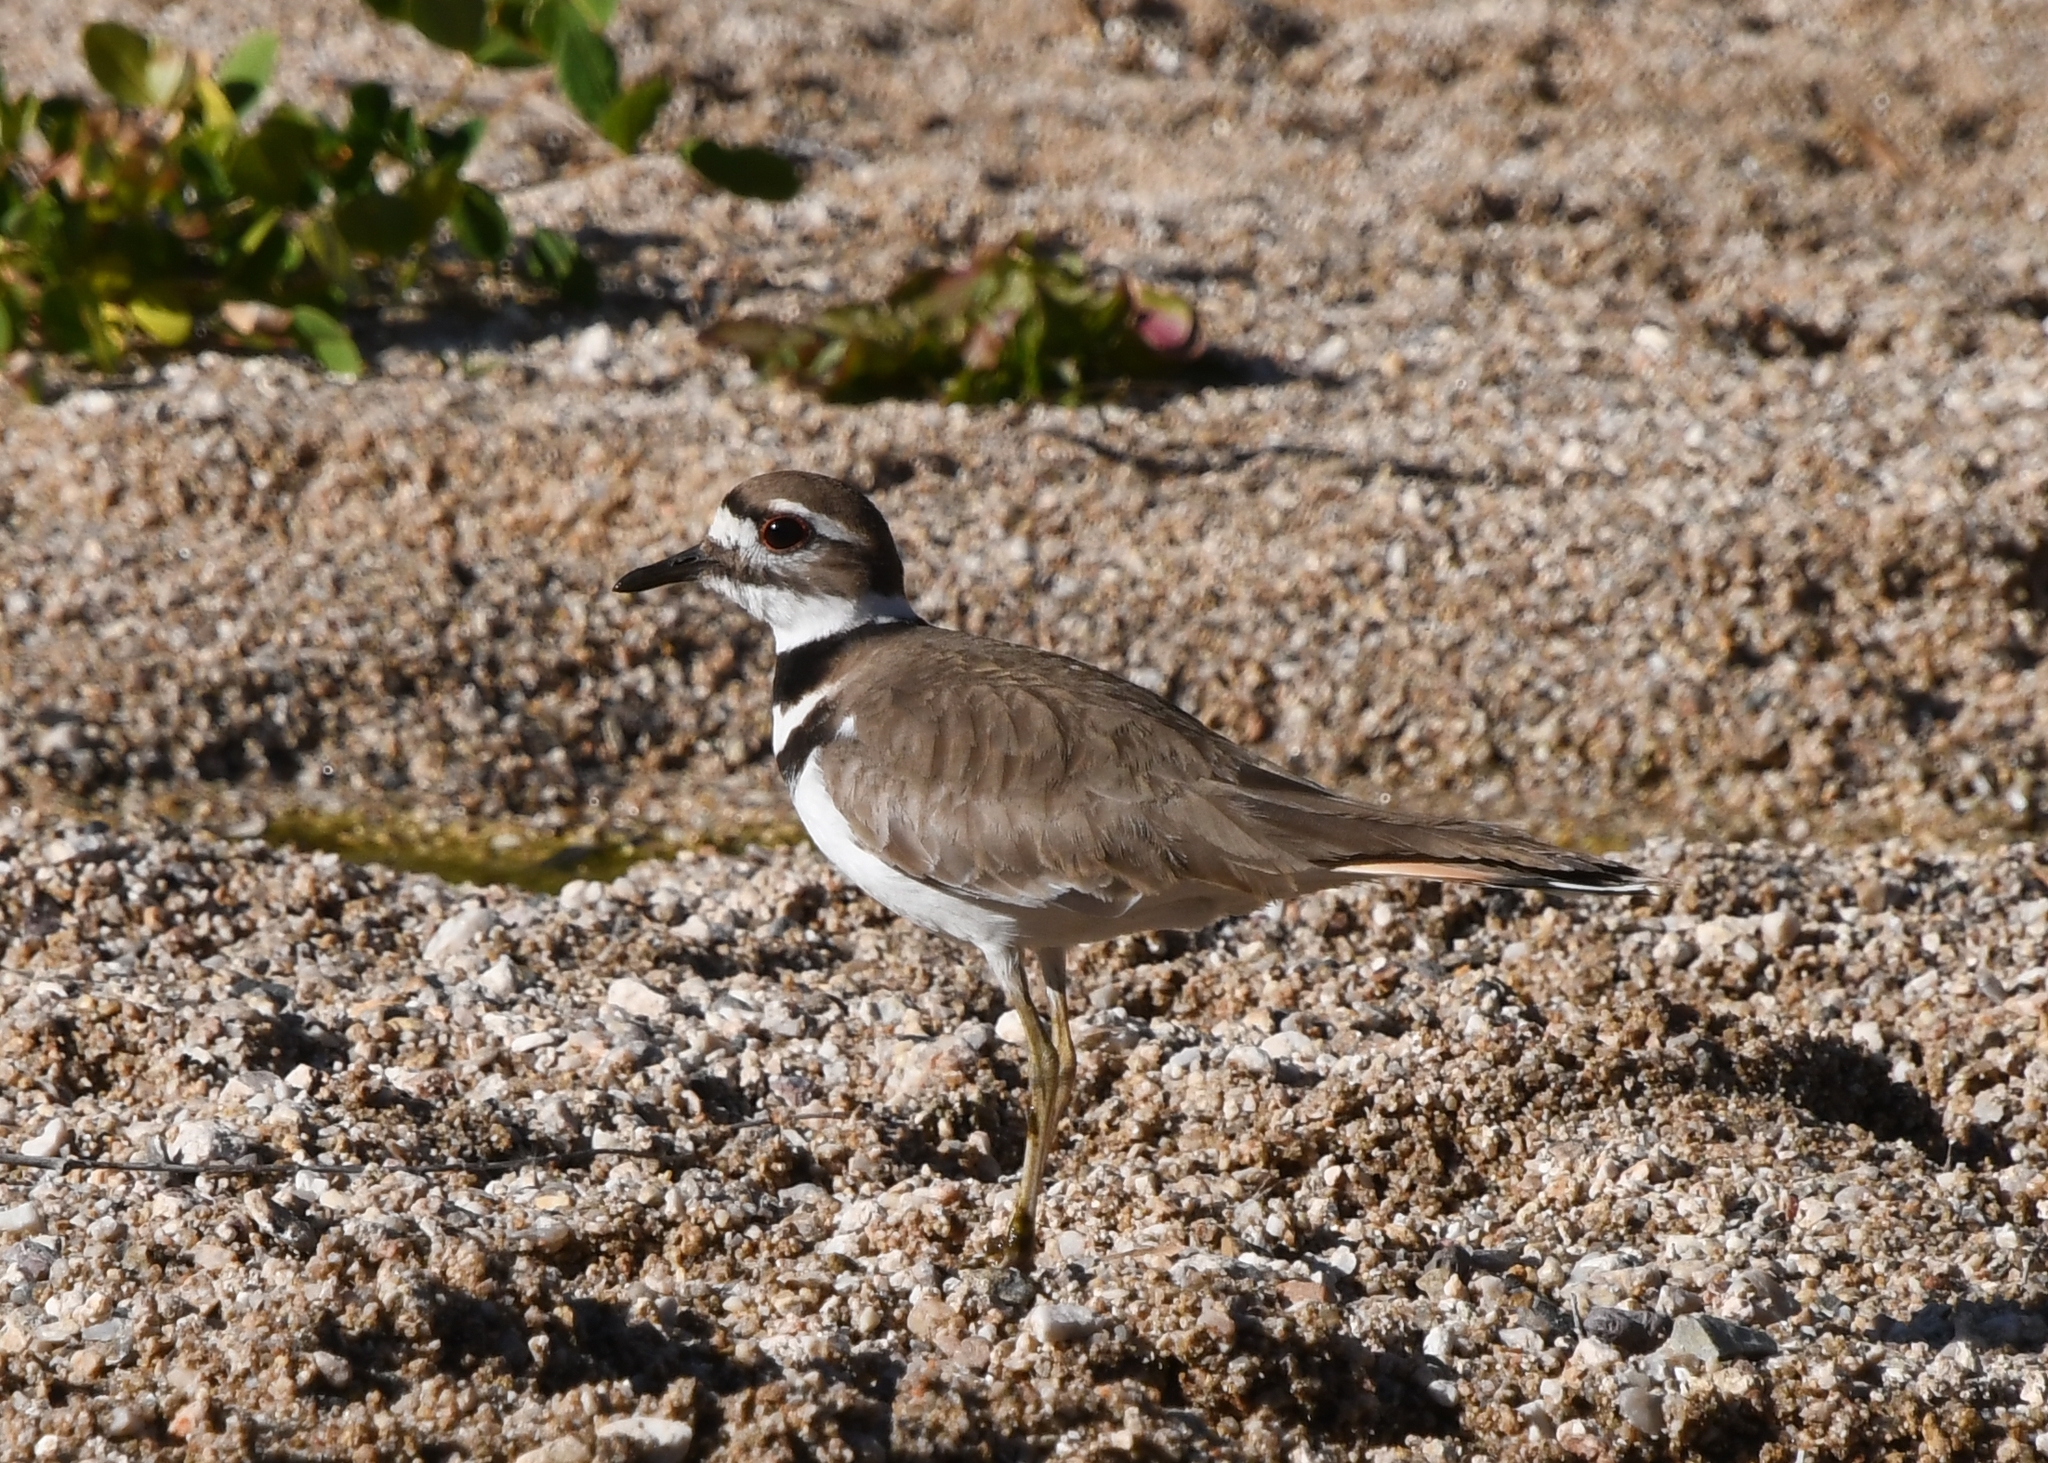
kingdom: Animalia
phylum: Chordata
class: Aves
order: Charadriiformes
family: Charadriidae
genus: Charadrius
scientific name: Charadrius vociferus
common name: Killdeer
